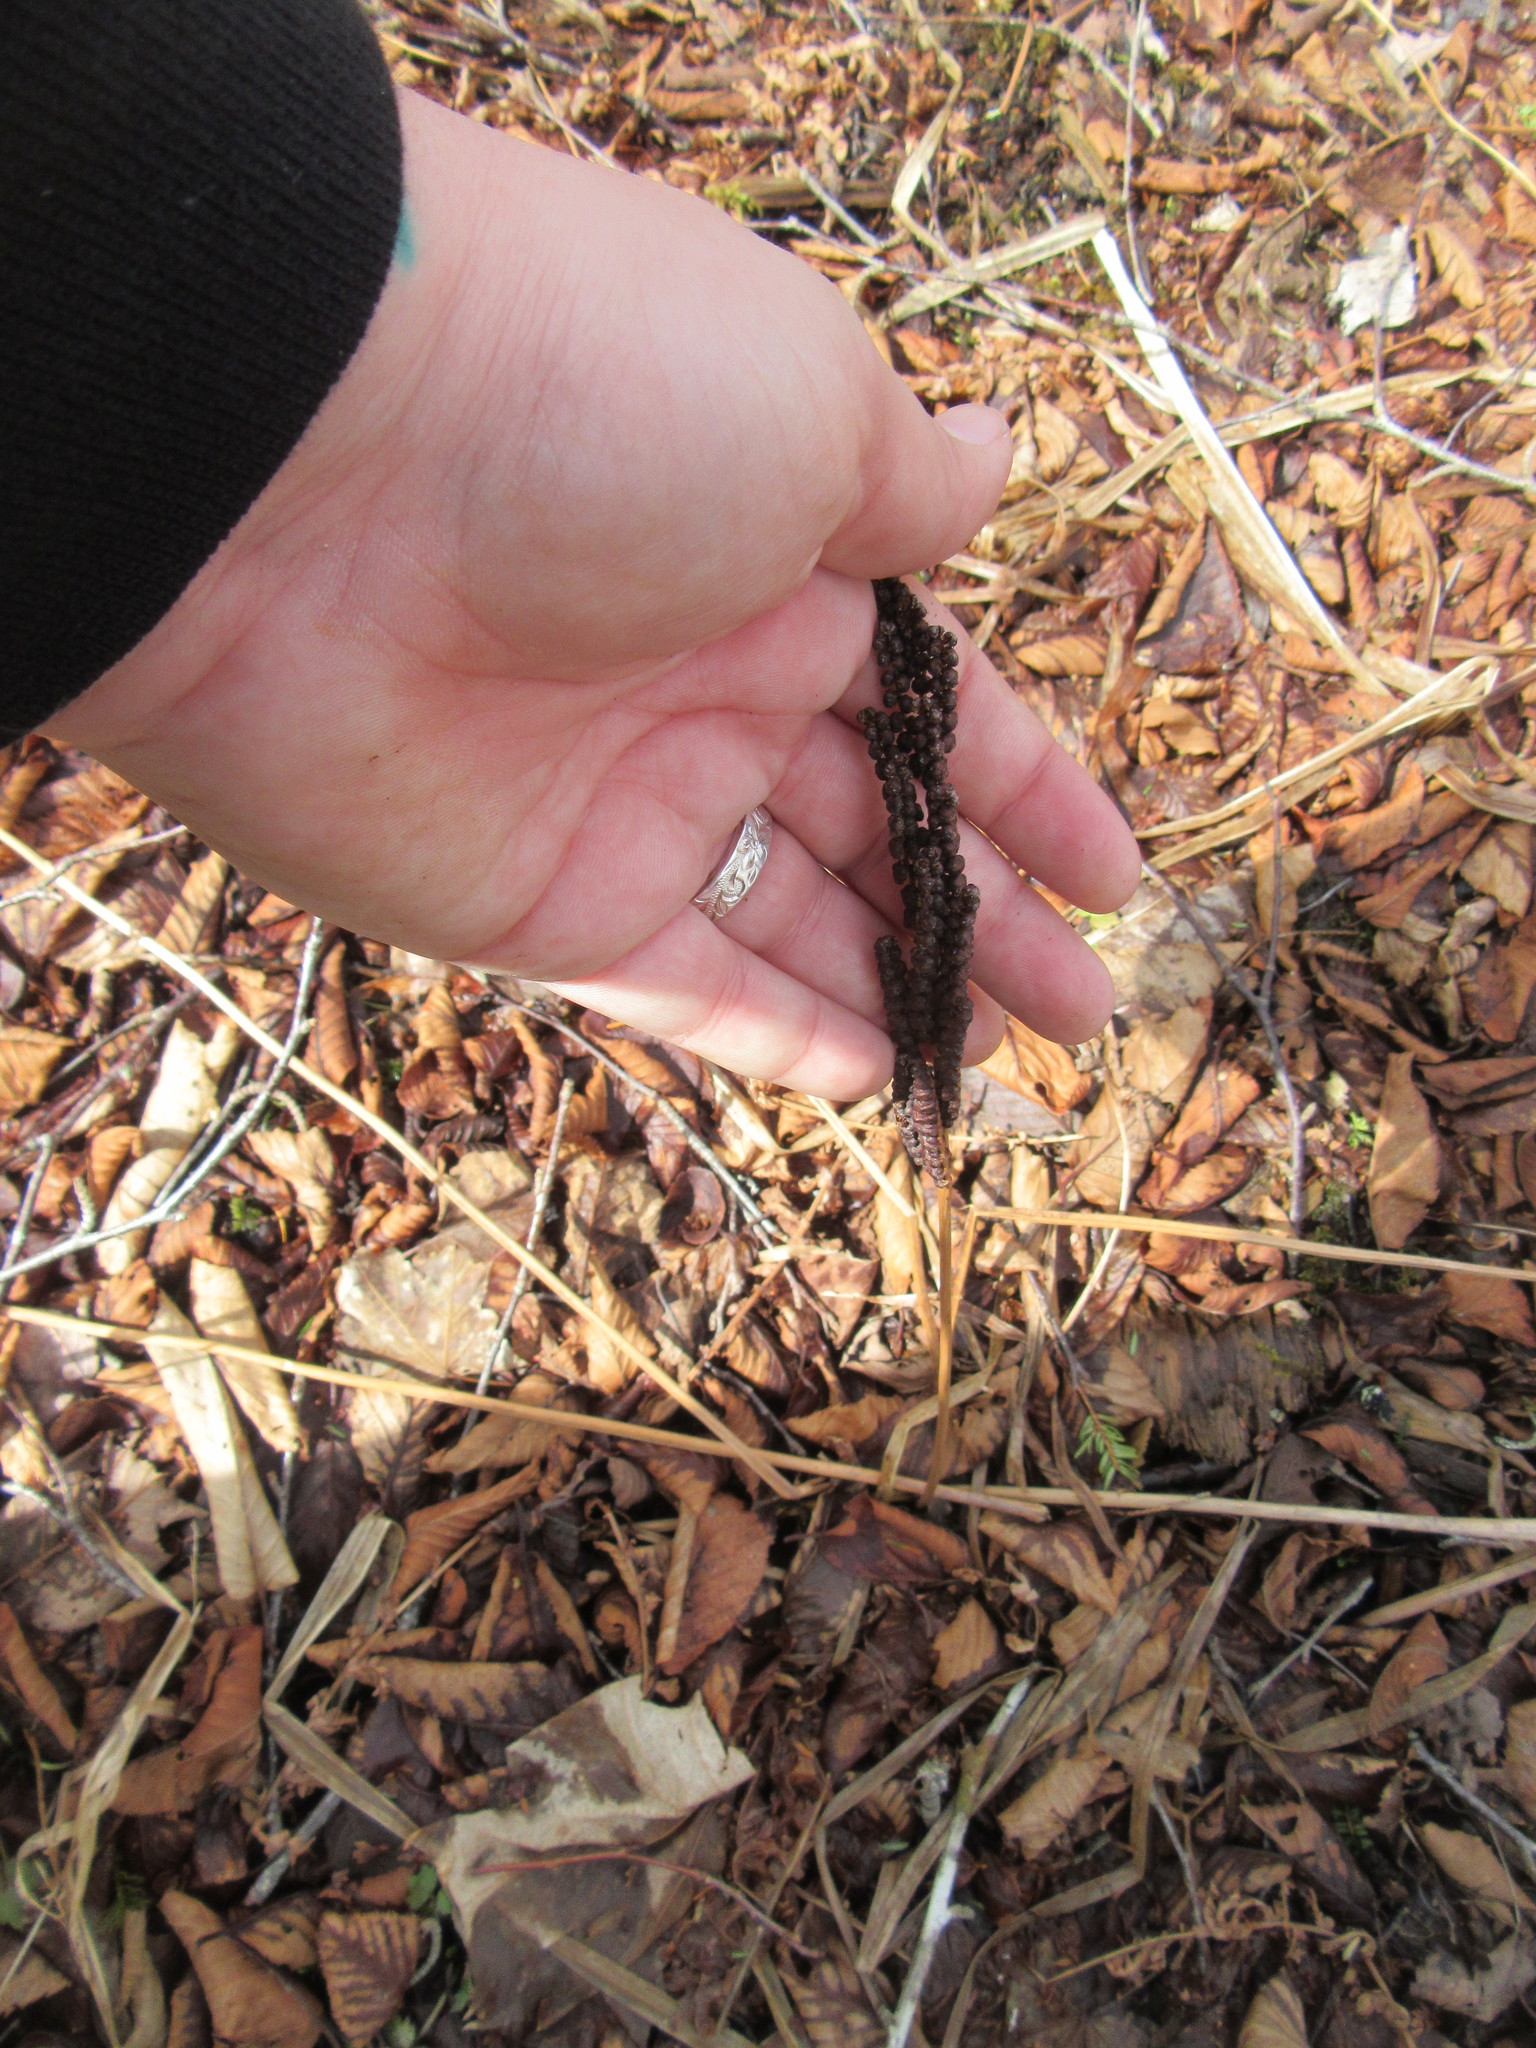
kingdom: Plantae
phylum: Tracheophyta
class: Polypodiopsida
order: Polypodiales
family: Onocleaceae
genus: Onoclea
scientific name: Onoclea sensibilis
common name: Sensitive fern
